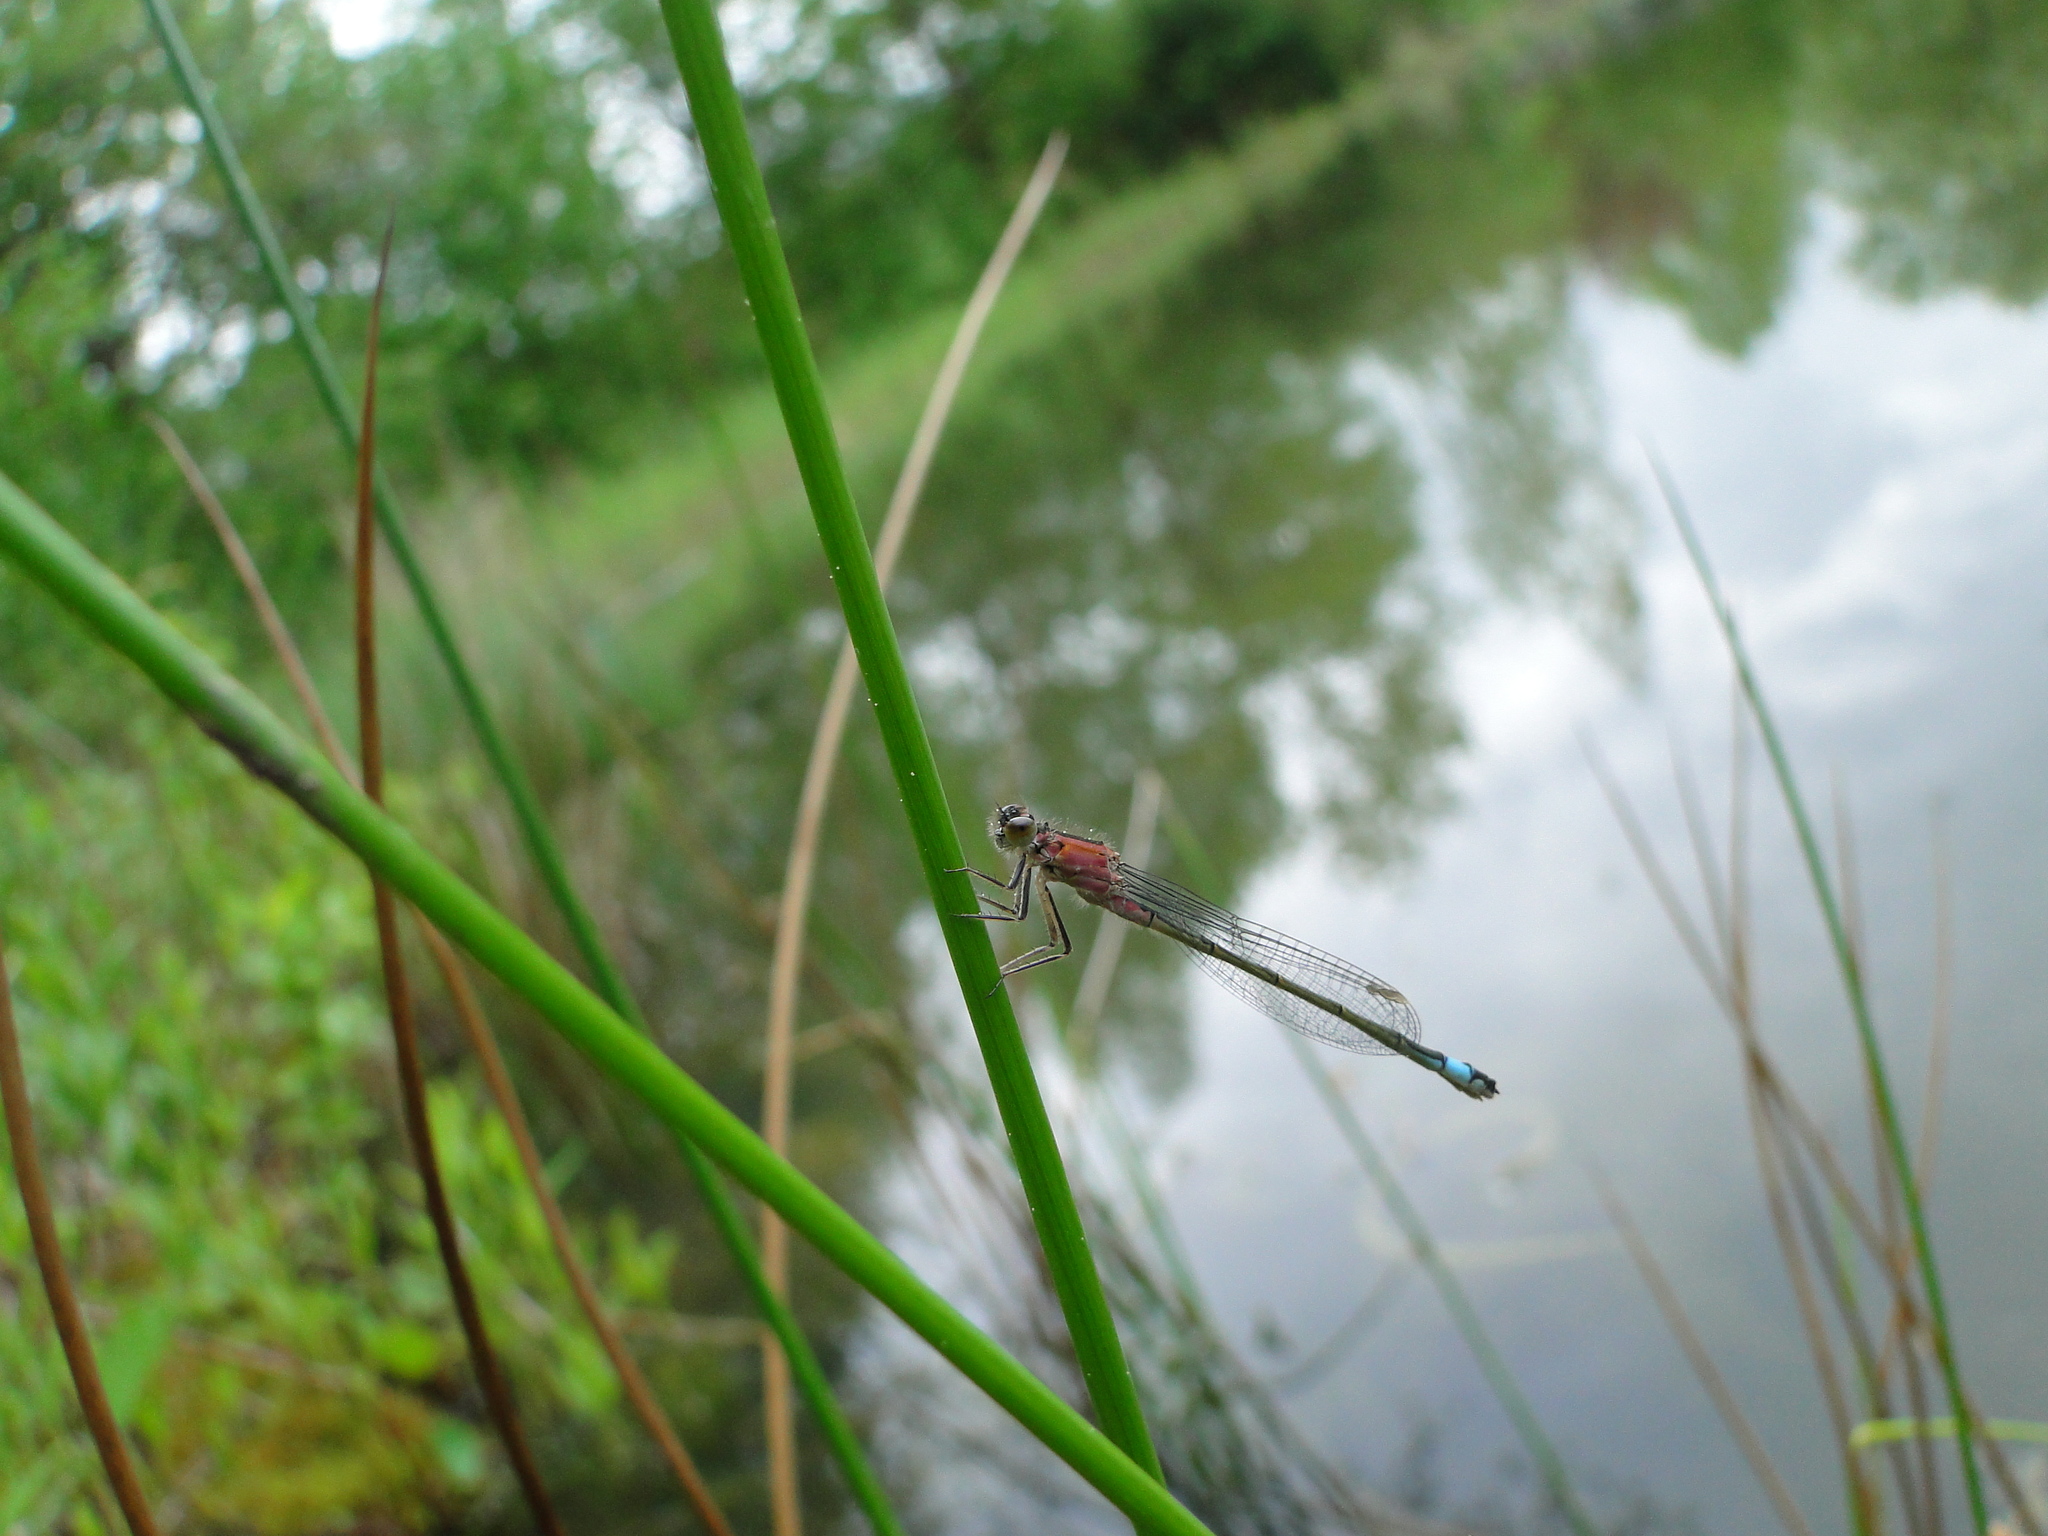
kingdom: Animalia
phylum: Arthropoda
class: Insecta
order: Odonata
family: Coenagrionidae
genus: Ischnura
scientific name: Ischnura elegans
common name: Blue-tailed damselfly
